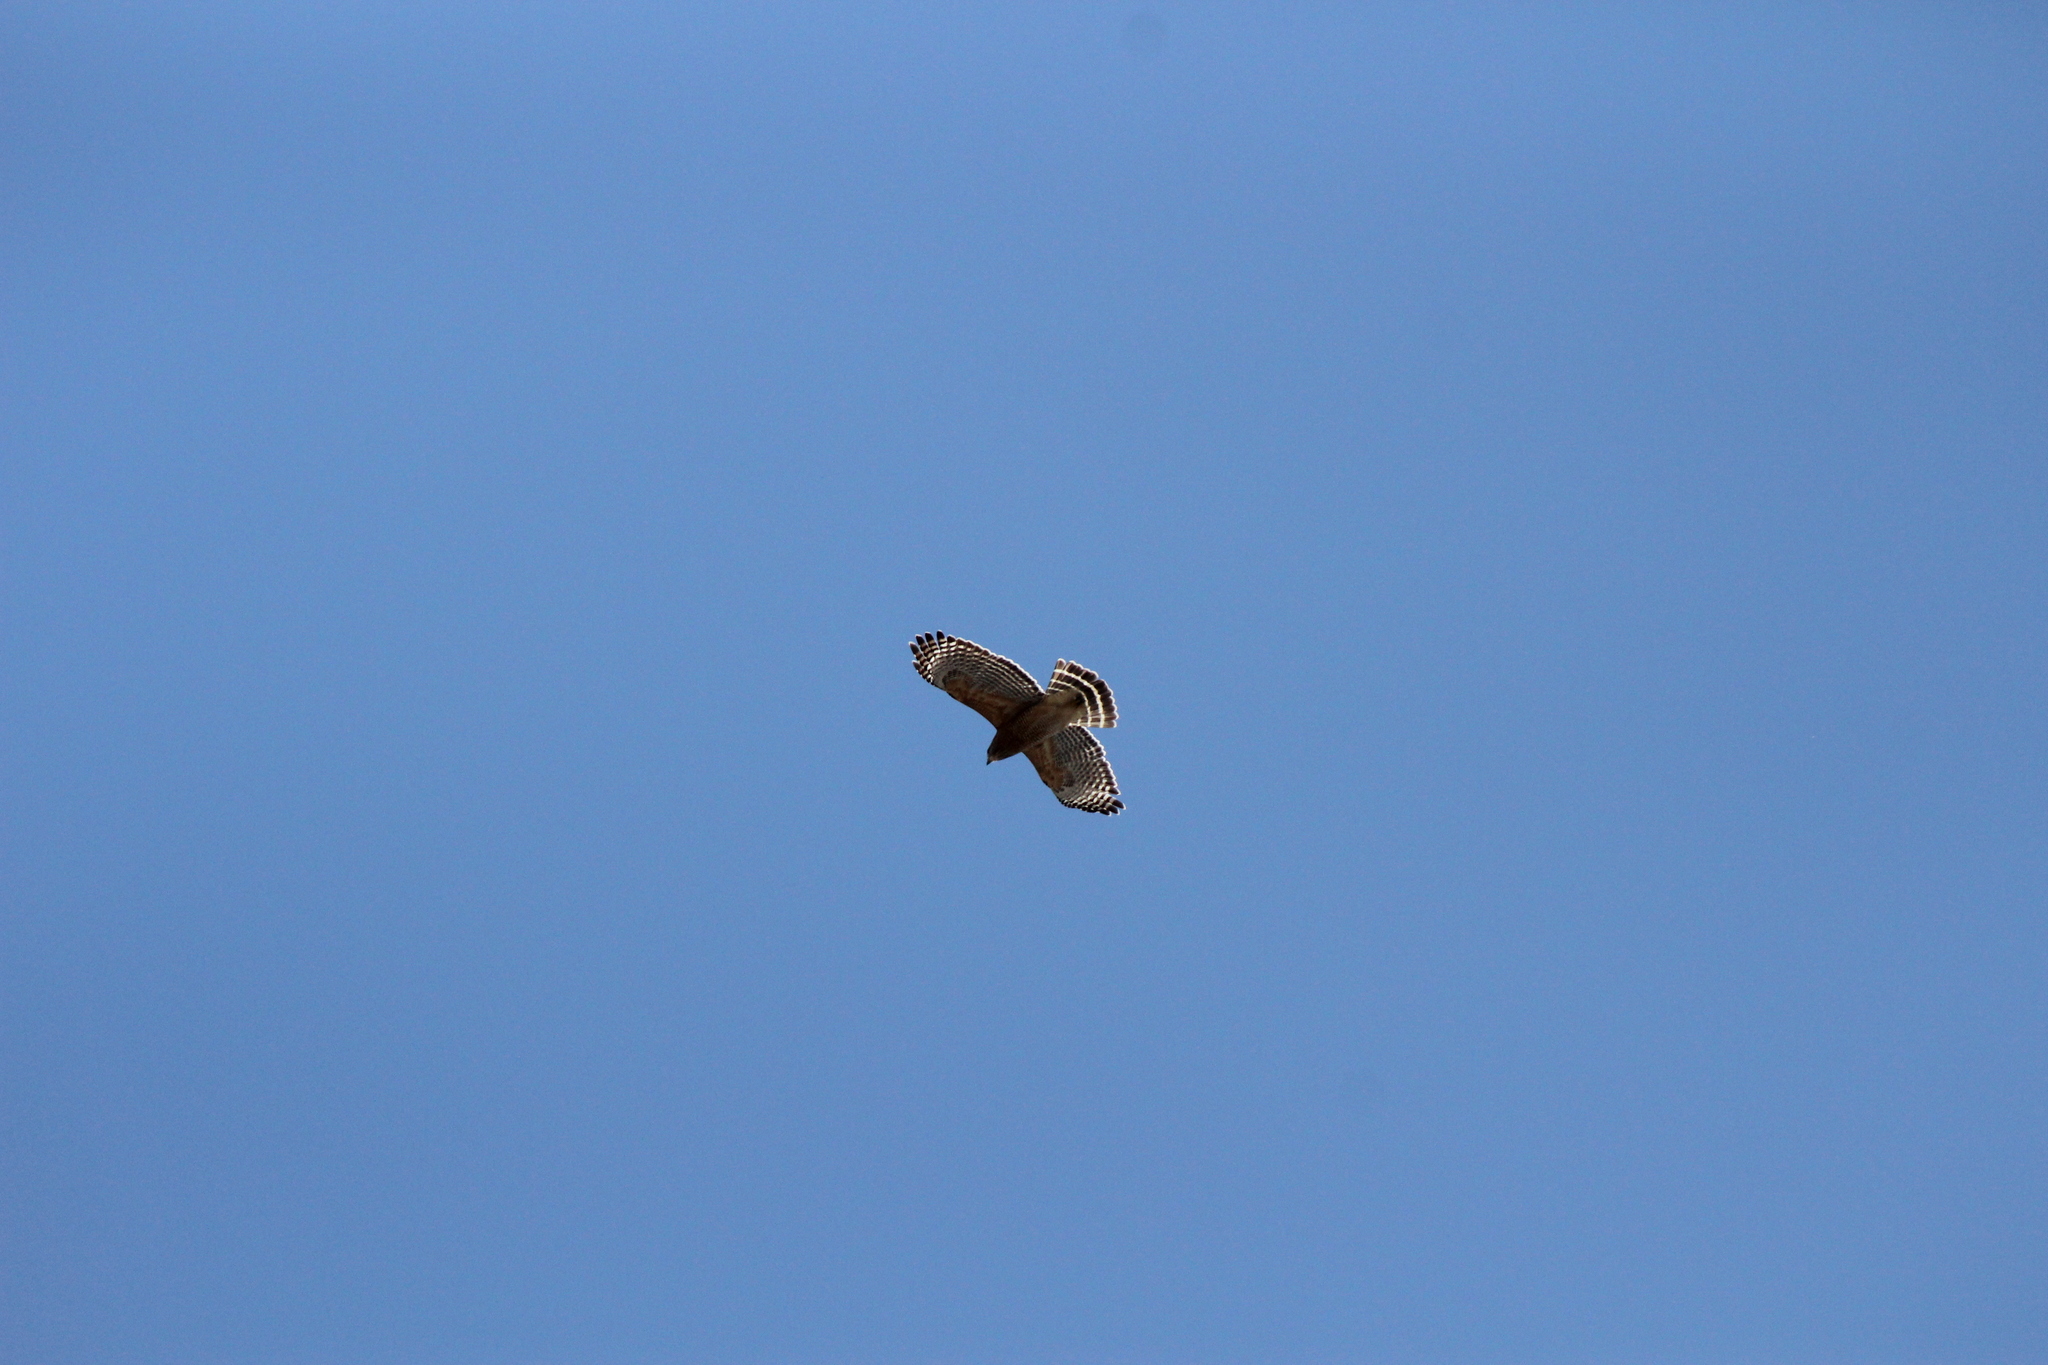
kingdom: Animalia
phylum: Chordata
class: Aves
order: Accipitriformes
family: Accipitridae
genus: Buteo
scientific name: Buteo lineatus
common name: Red-shouldered hawk
